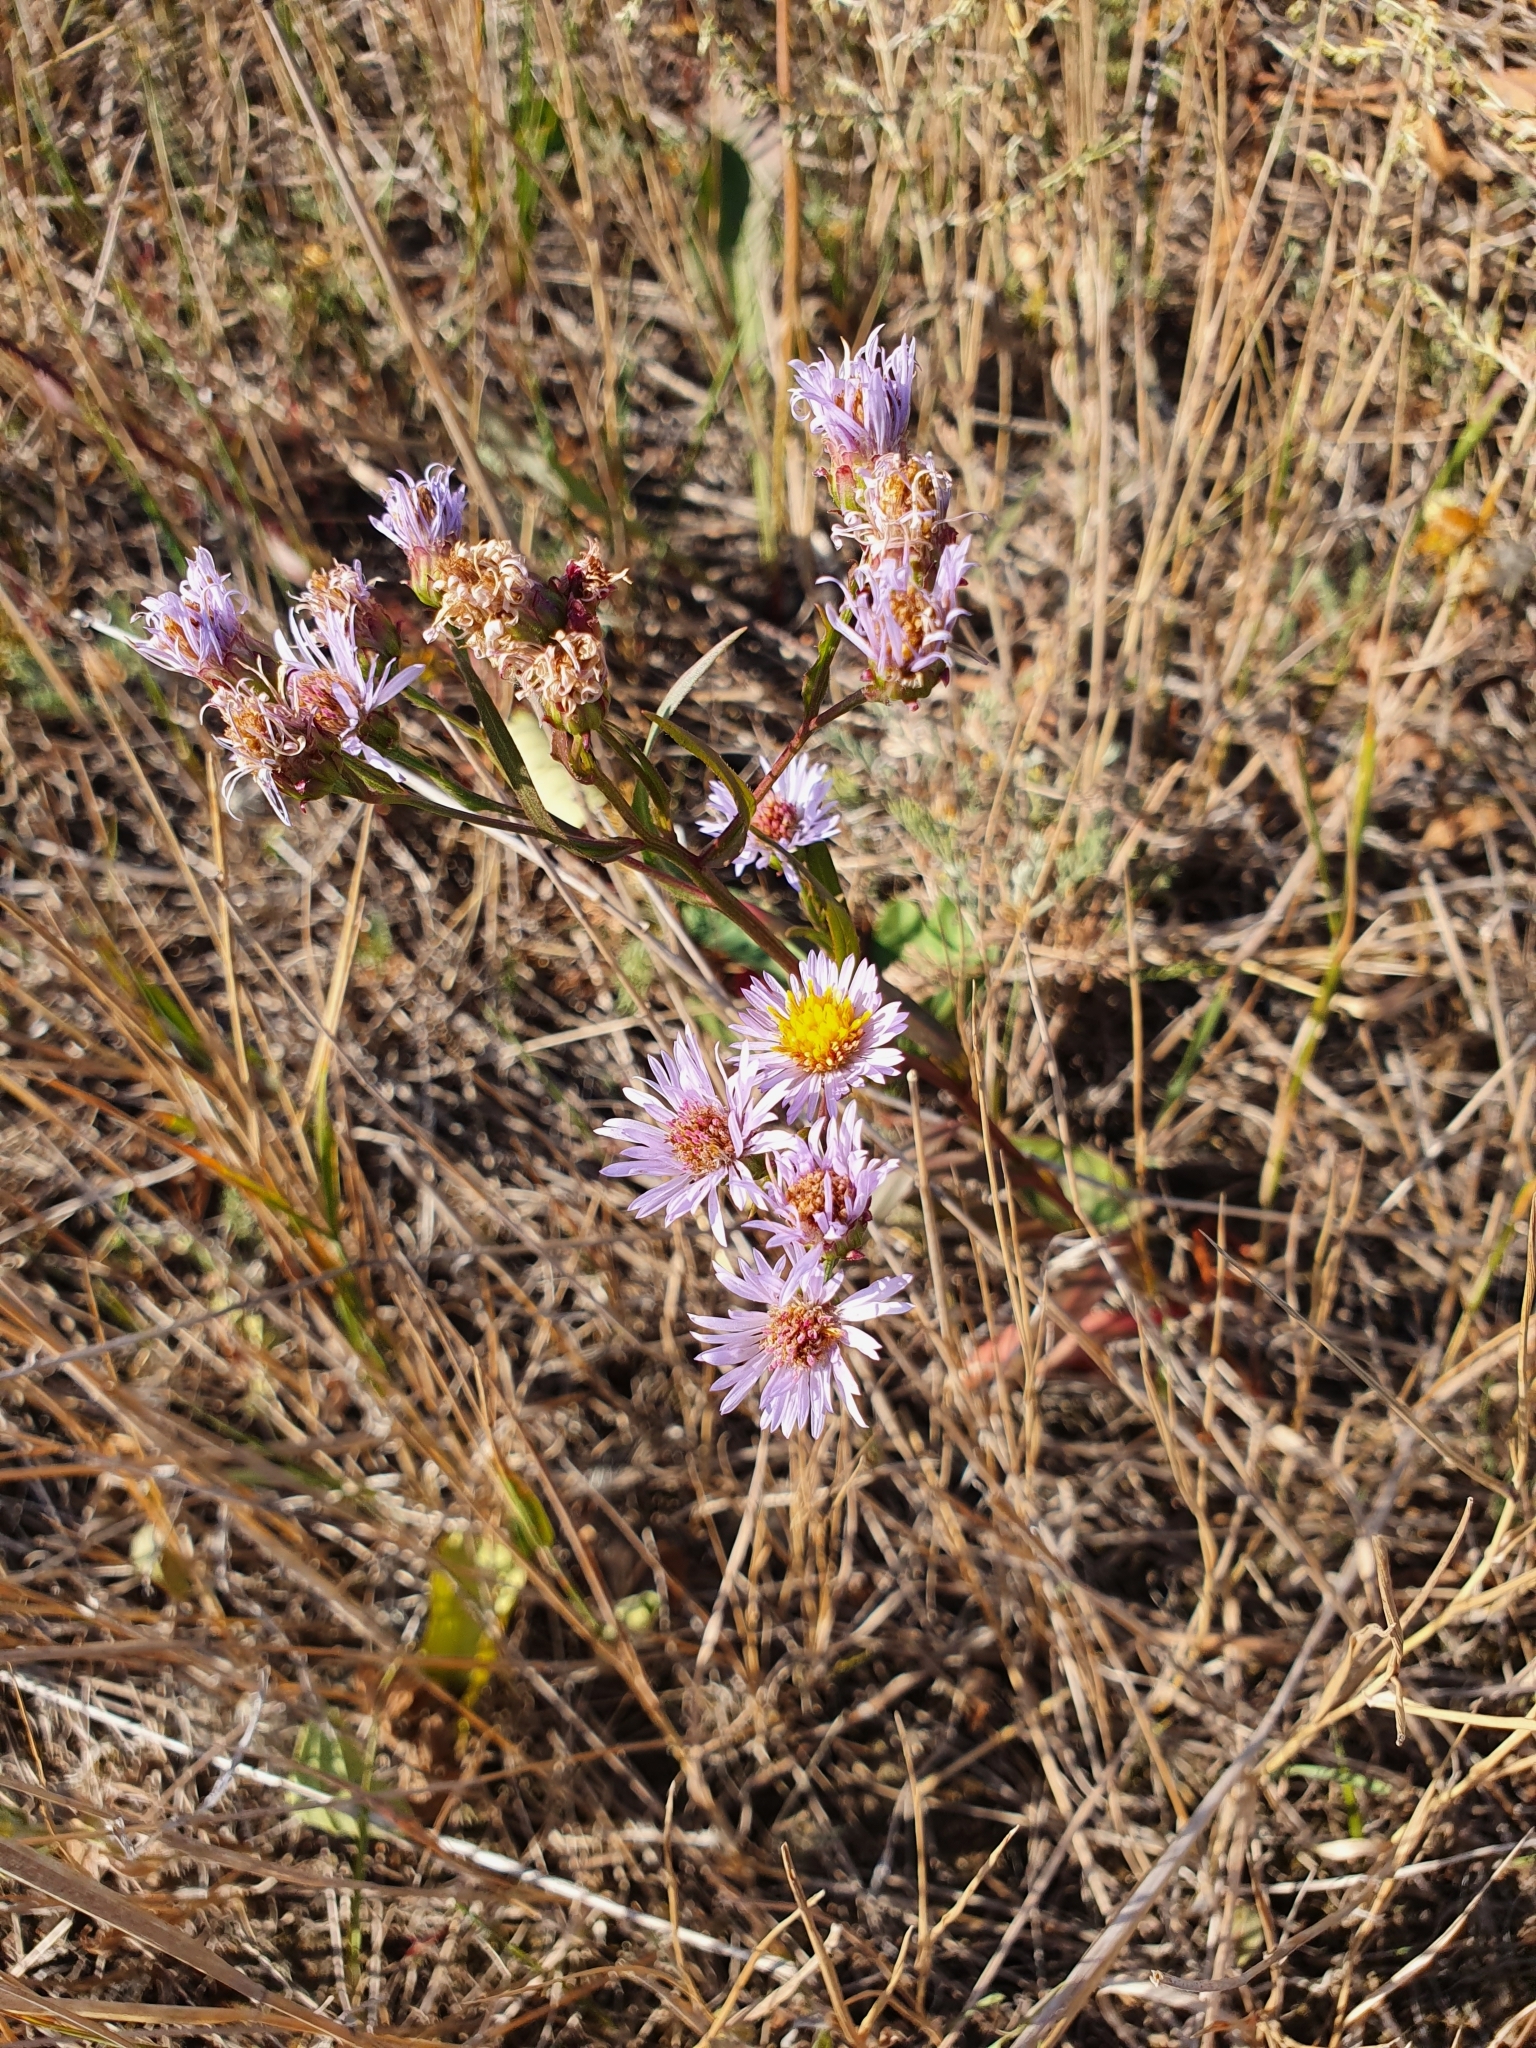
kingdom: Plantae
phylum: Tracheophyta
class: Magnoliopsida
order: Asterales
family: Asteraceae
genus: Tripolium
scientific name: Tripolium pannonicum
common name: Sea aster
